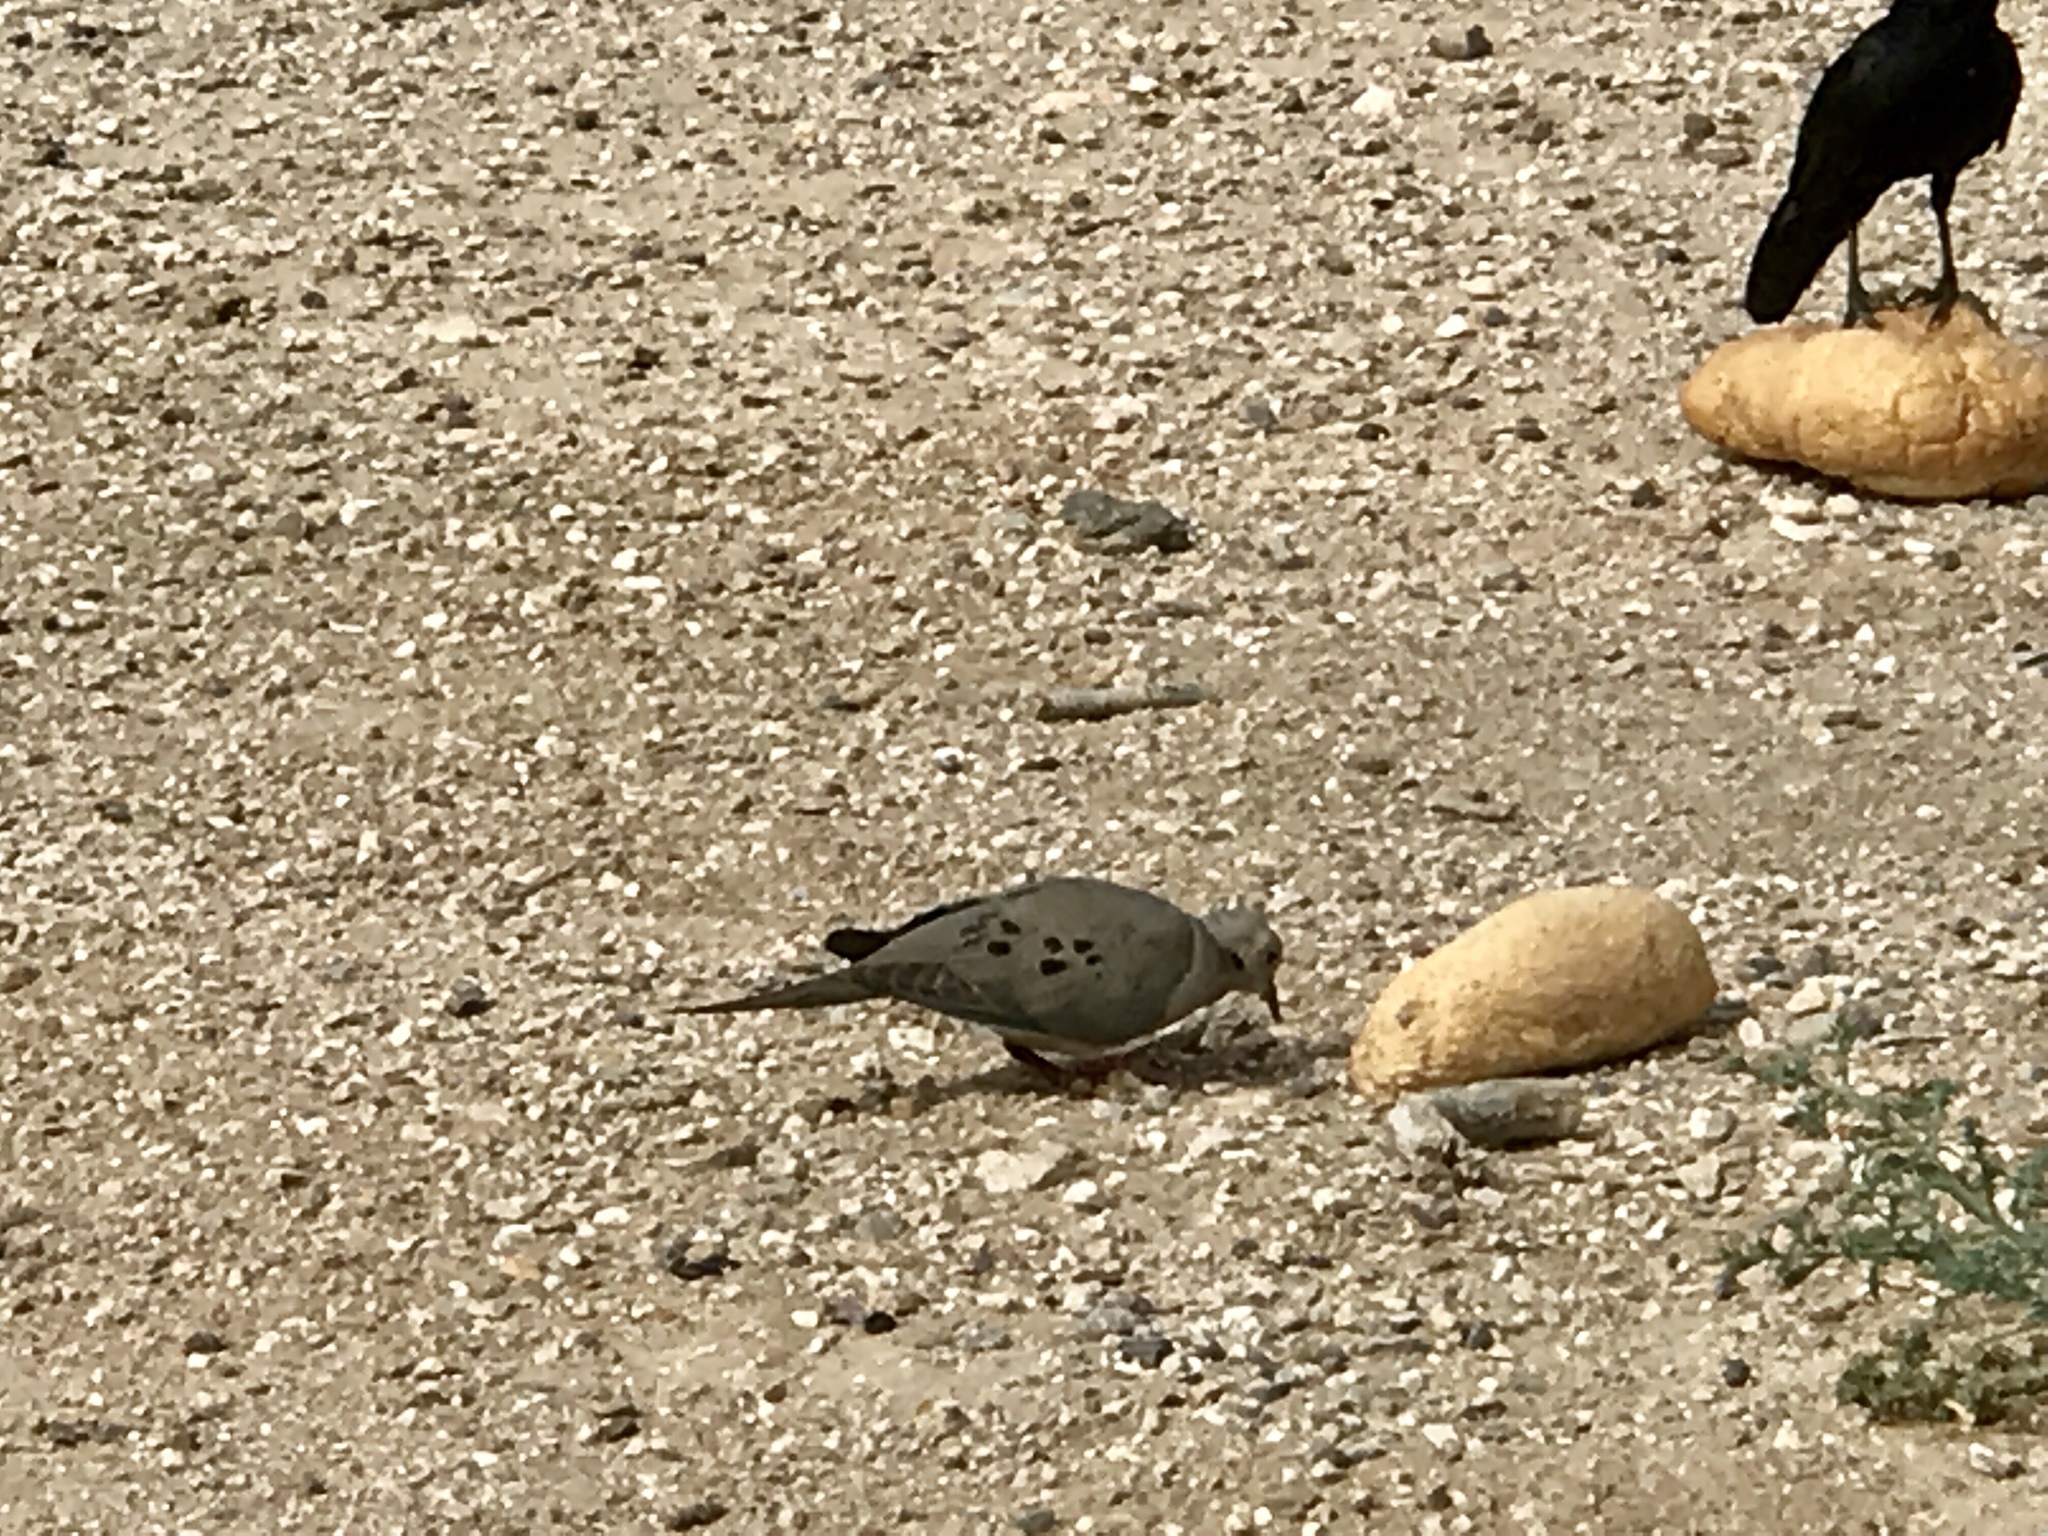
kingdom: Animalia
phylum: Chordata
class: Aves
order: Columbiformes
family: Columbidae
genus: Zenaida
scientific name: Zenaida macroura
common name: Mourning dove
